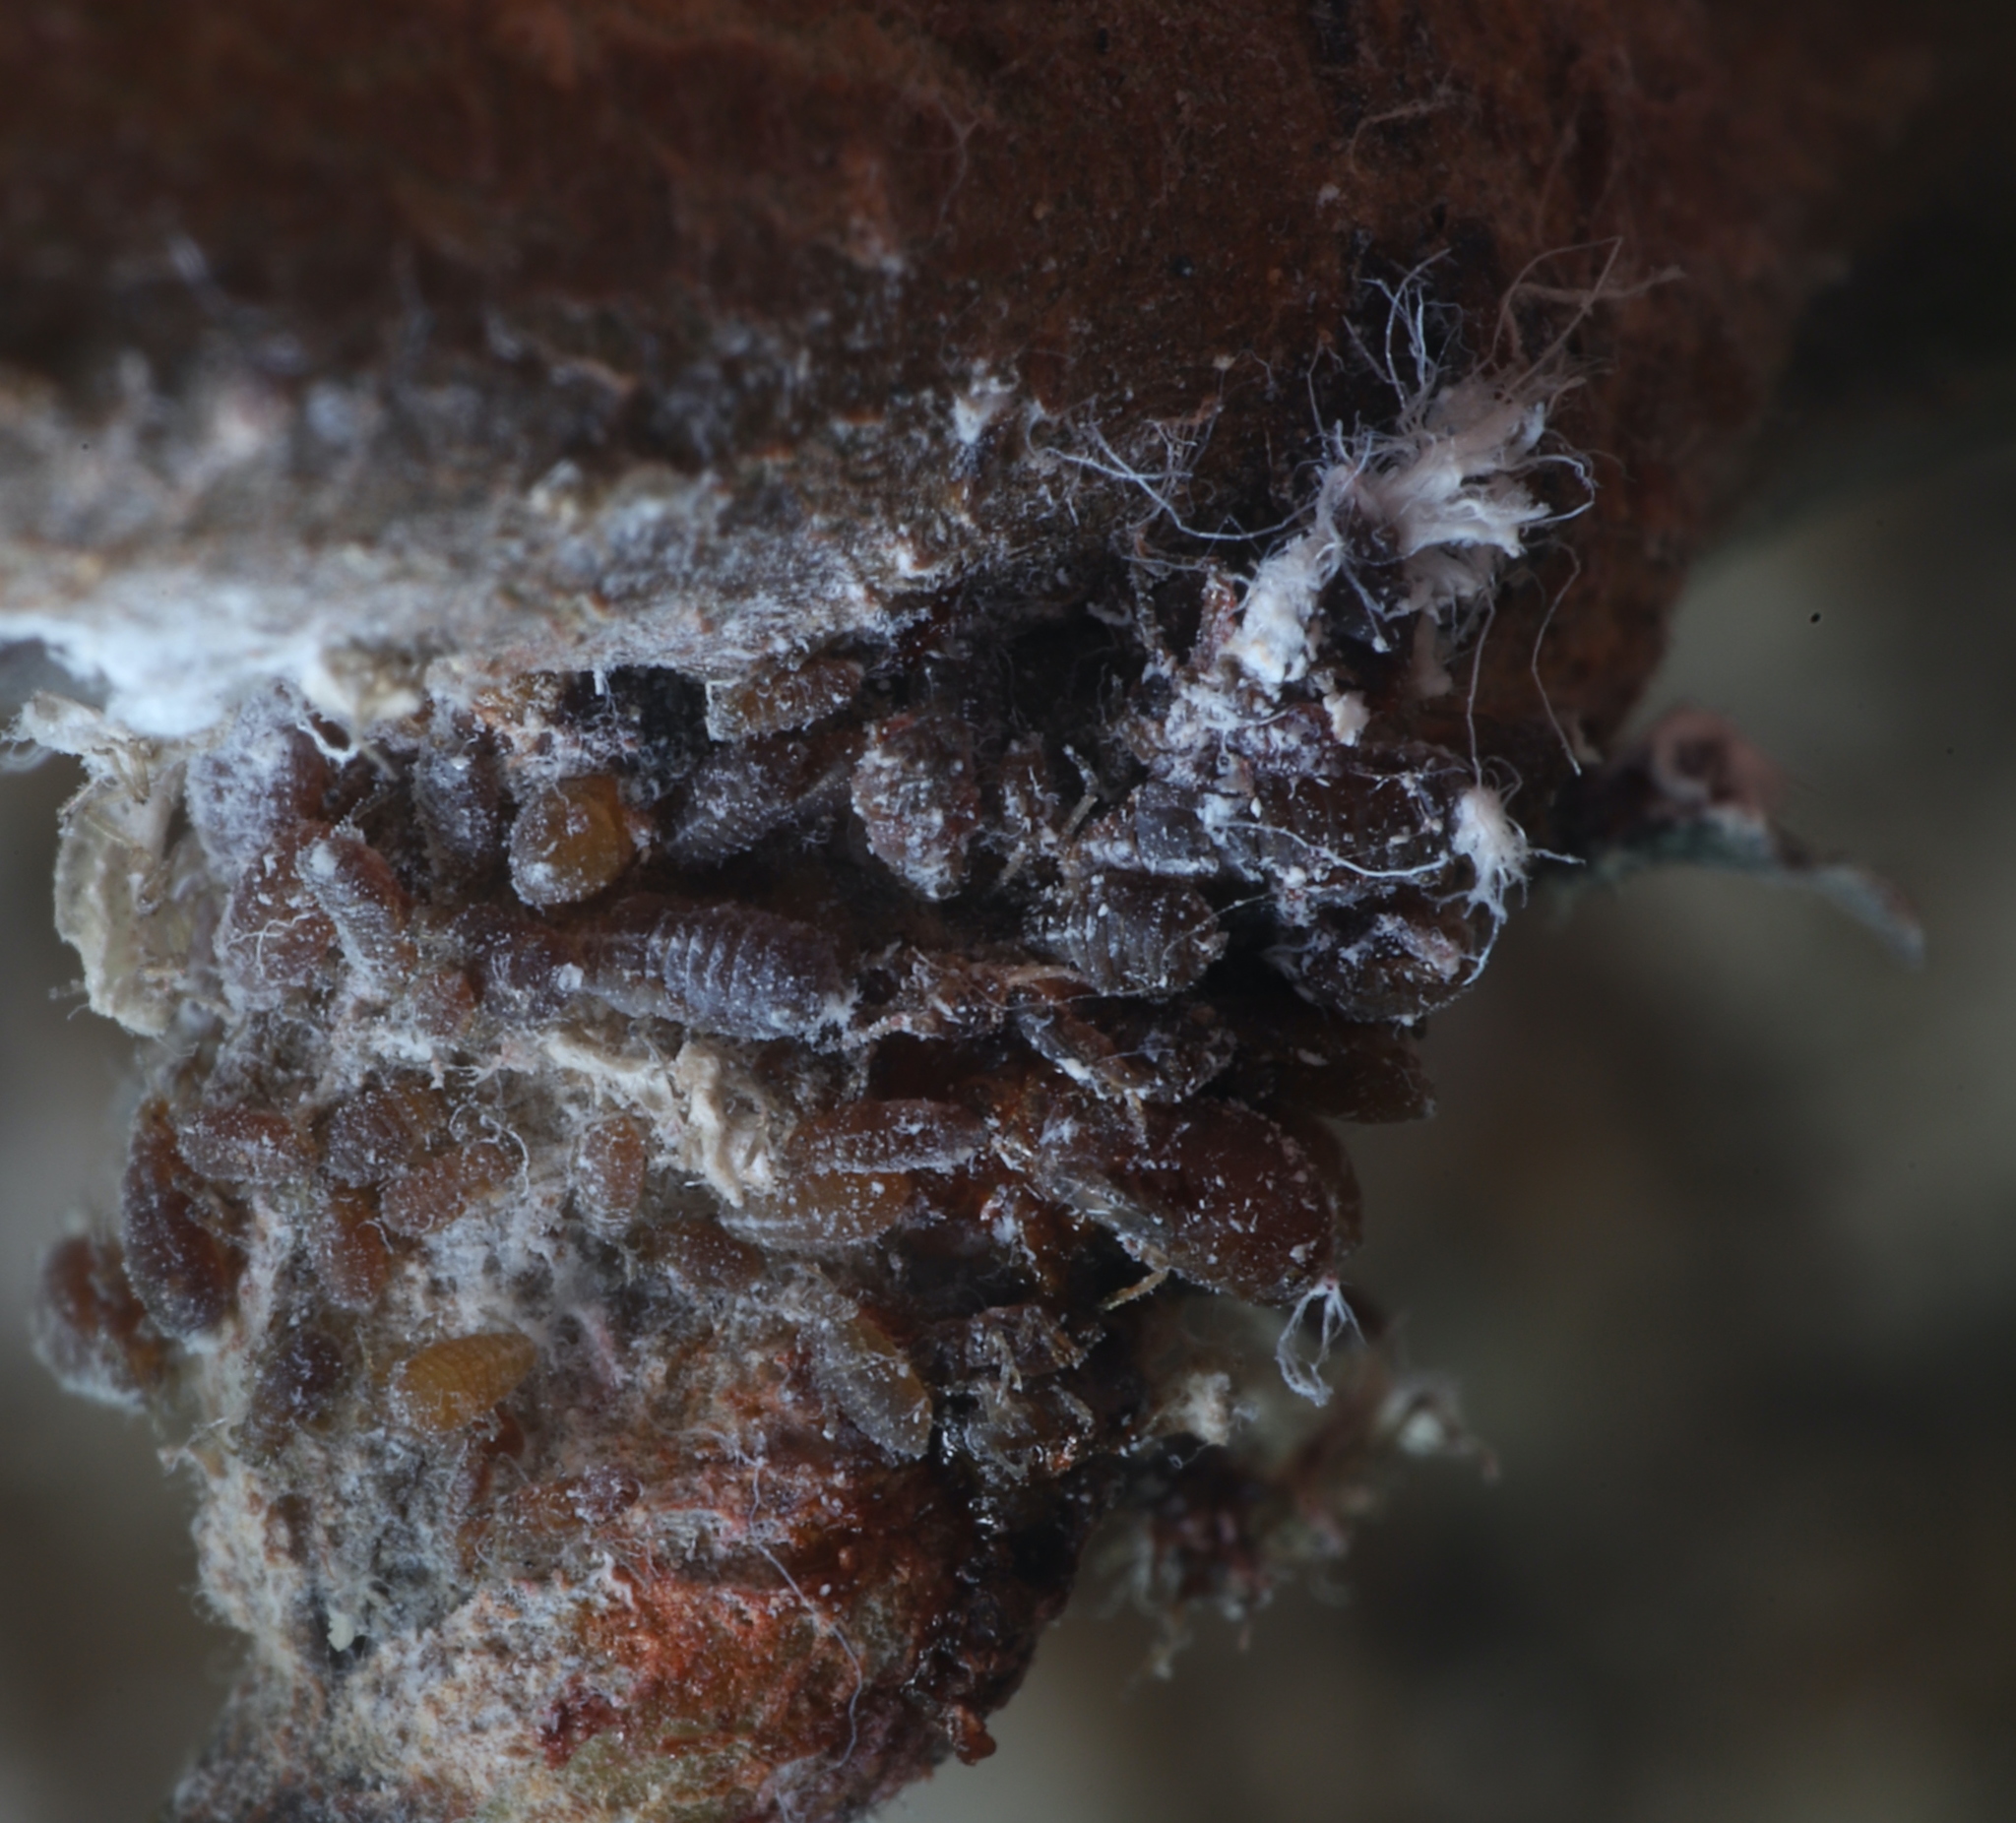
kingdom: Animalia
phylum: Arthropoda
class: Insecta
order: Hemiptera
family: Aphididae
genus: Eriosoma
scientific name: Eriosoma lanigerum
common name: Woolly apple aphid
